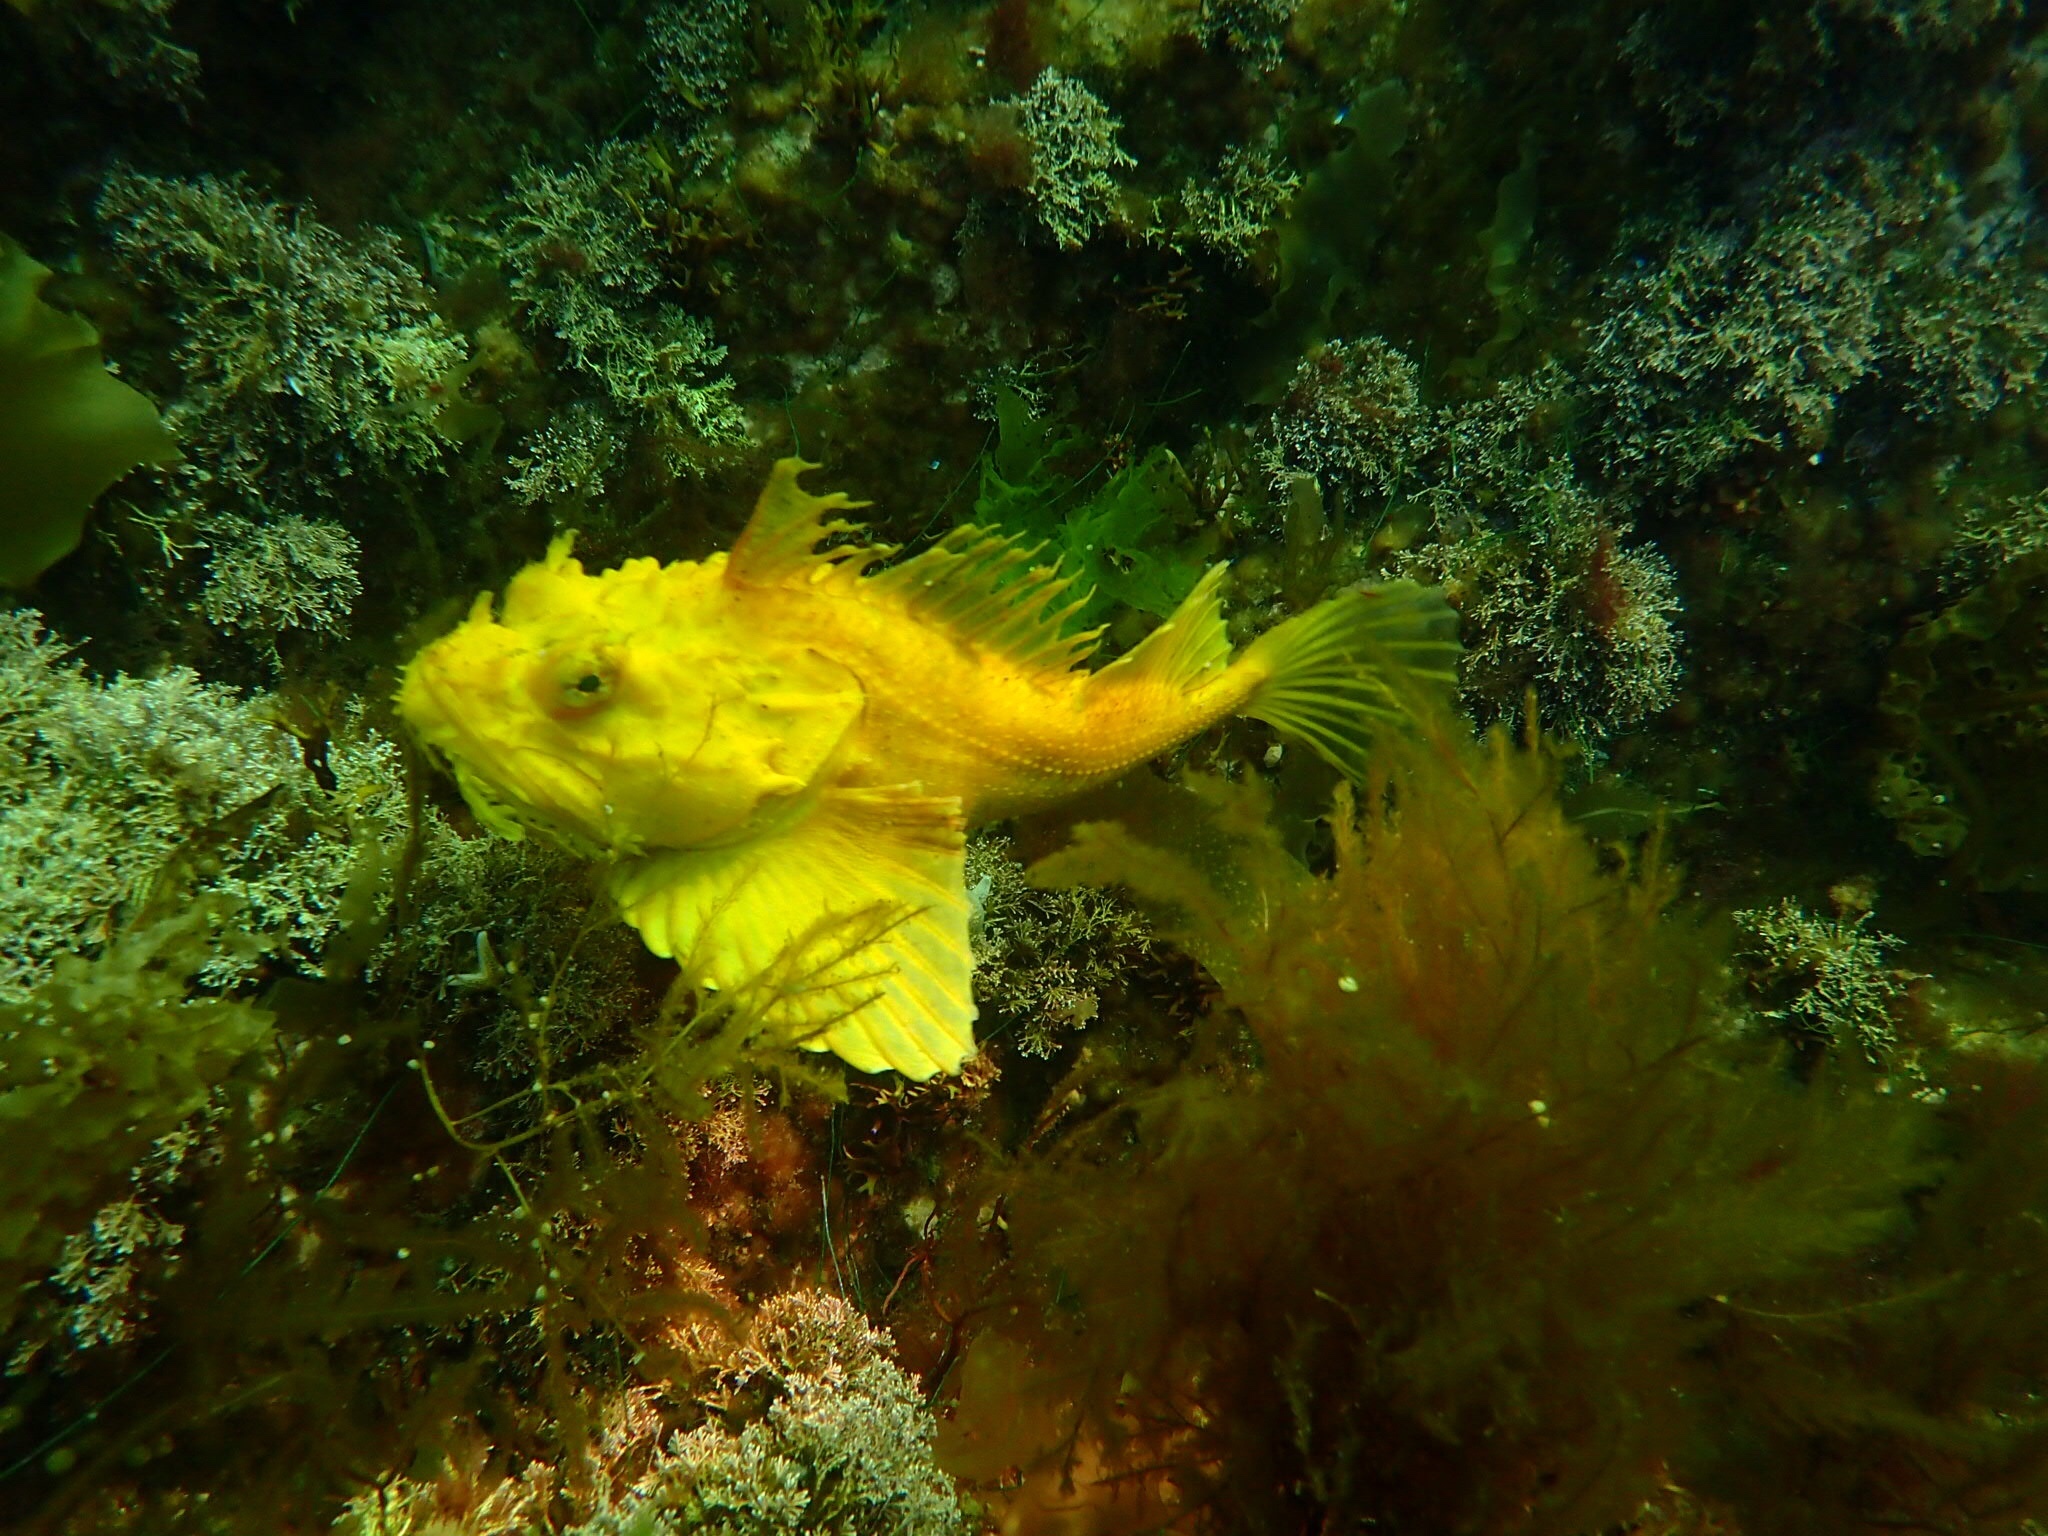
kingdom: Animalia
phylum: Chordata
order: Scorpaeniformes
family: Hemitripteridae
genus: Hemitripterus
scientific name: Hemitripterus americanus
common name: Sea raven
